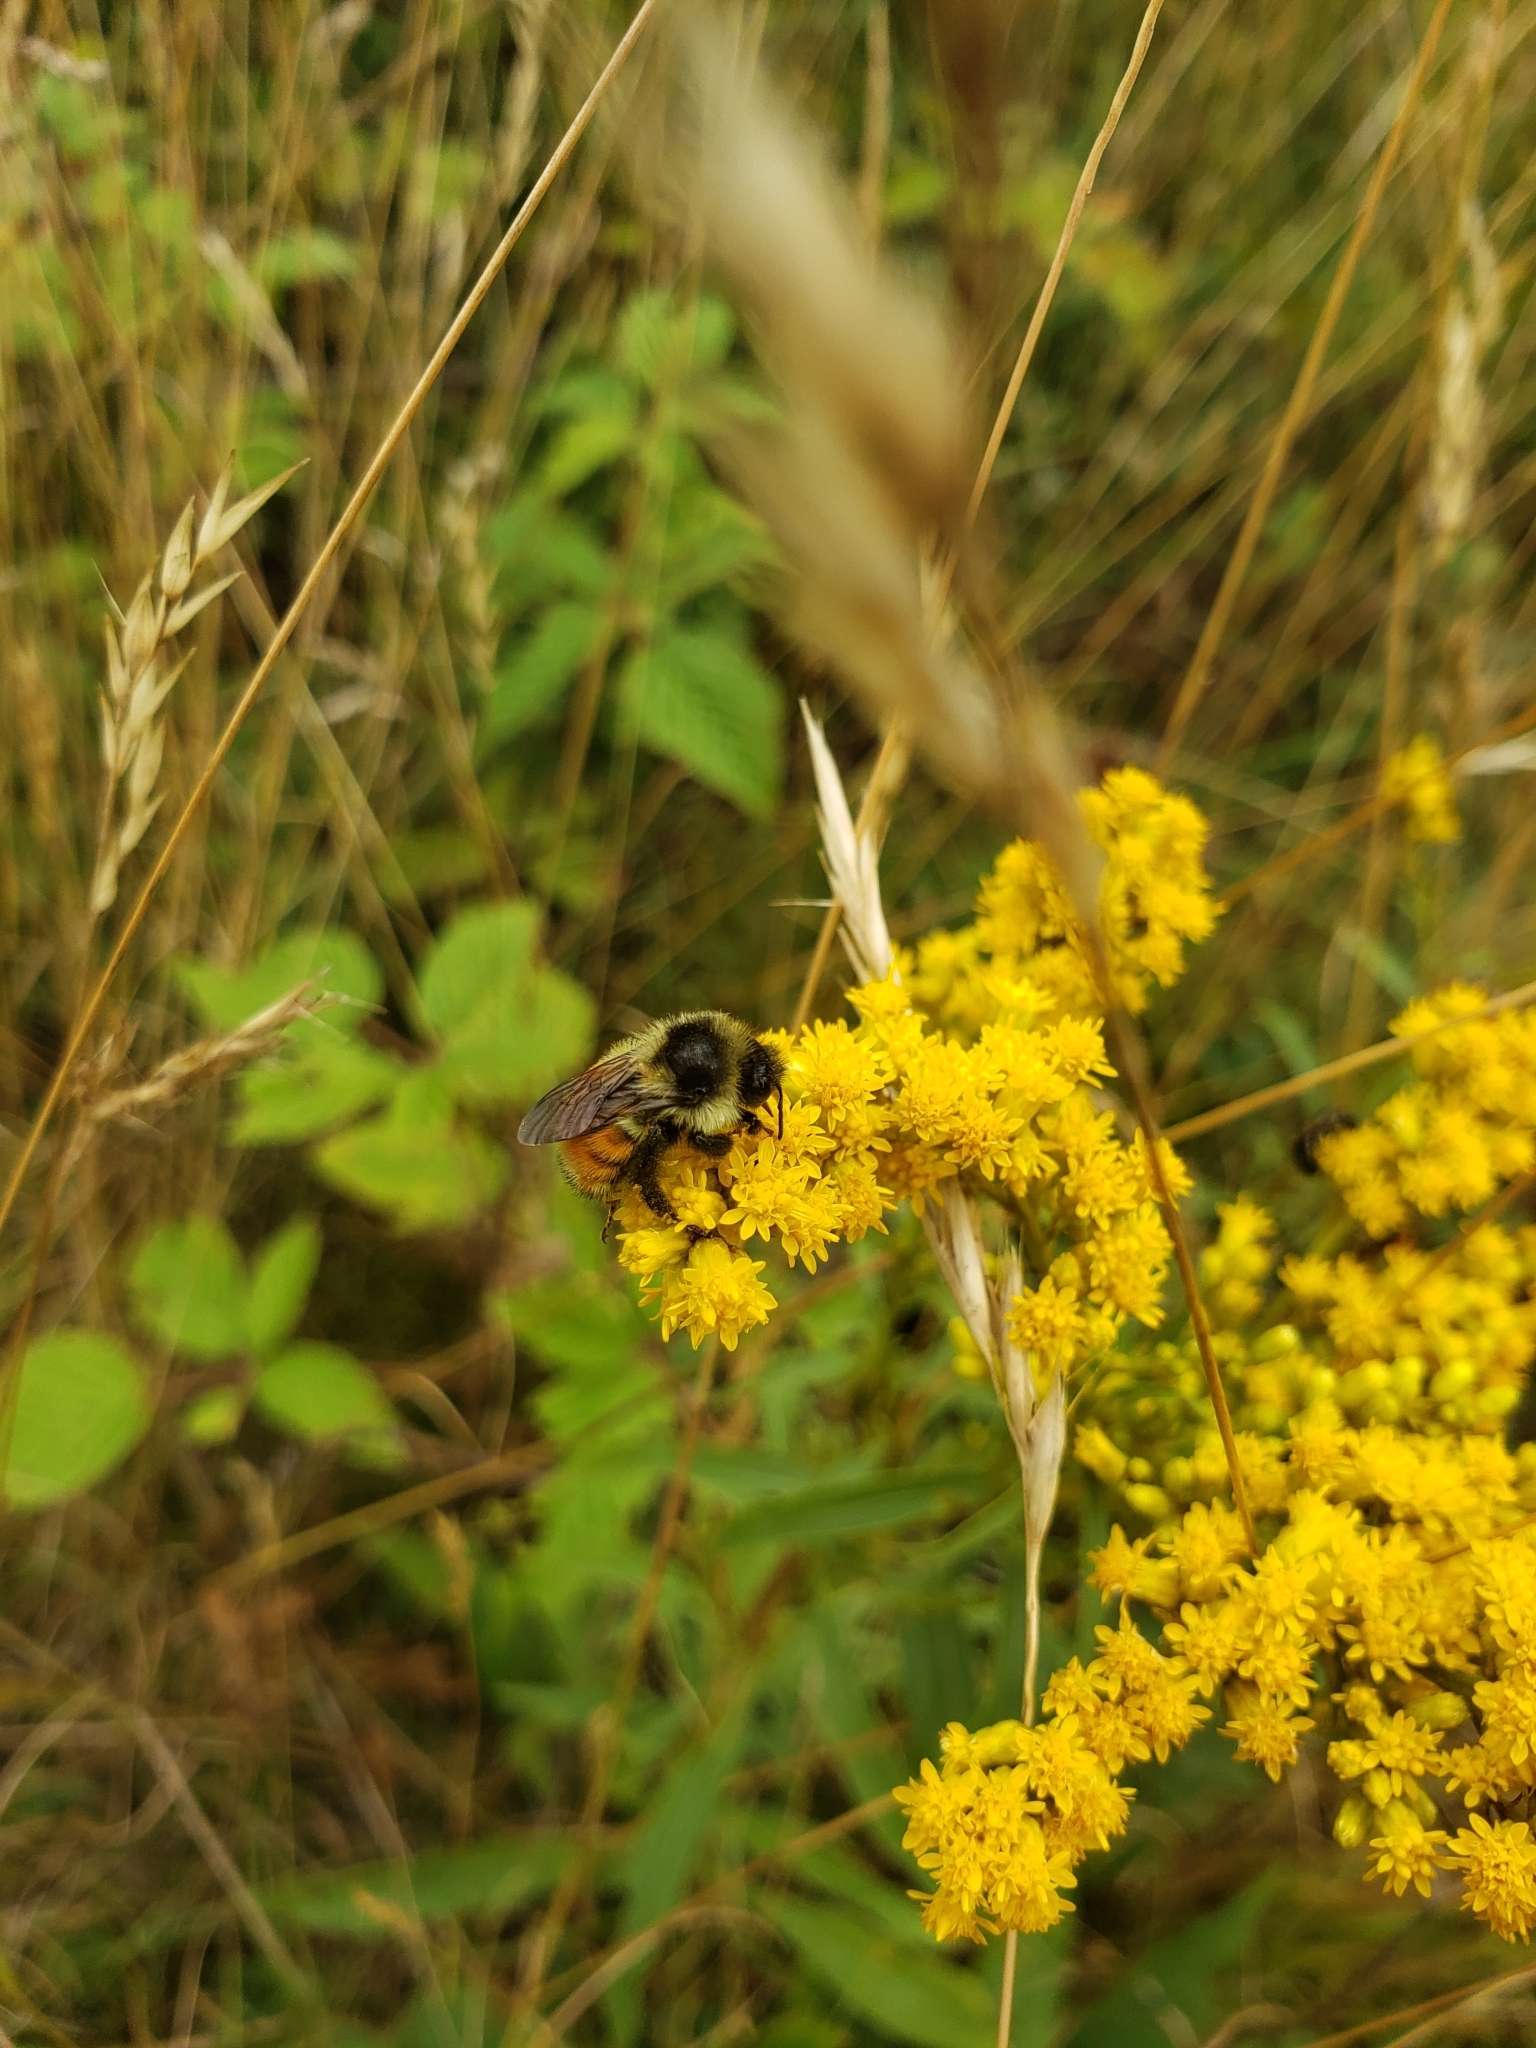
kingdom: Animalia
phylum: Arthropoda
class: Insecta
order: Hymenoptera
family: Apidae
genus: Bombus
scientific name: Bombus ternarius
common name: Tri-colored bumble bee
